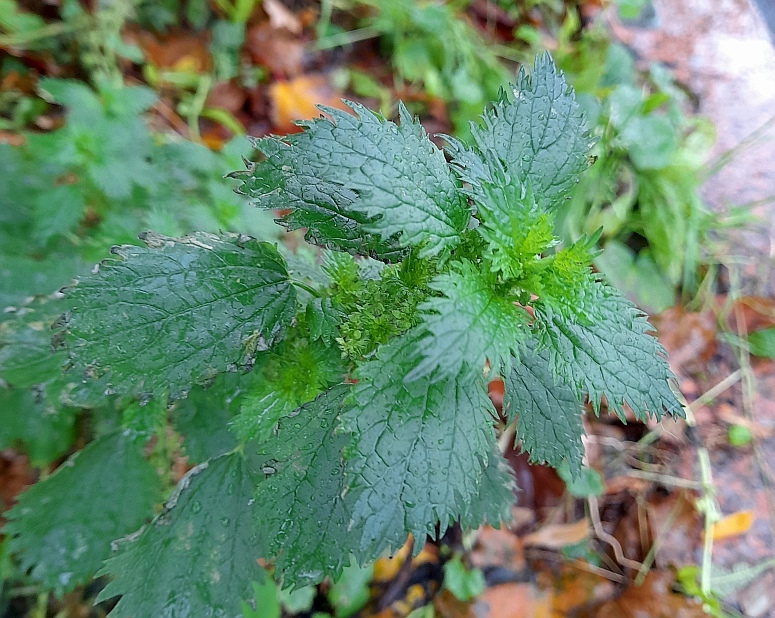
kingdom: Plantae
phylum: Tracheophyta
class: Magnoliopsida
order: Rosales
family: Urticaceae
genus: Urtica
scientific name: Urtica urens
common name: Dwarf nettle
